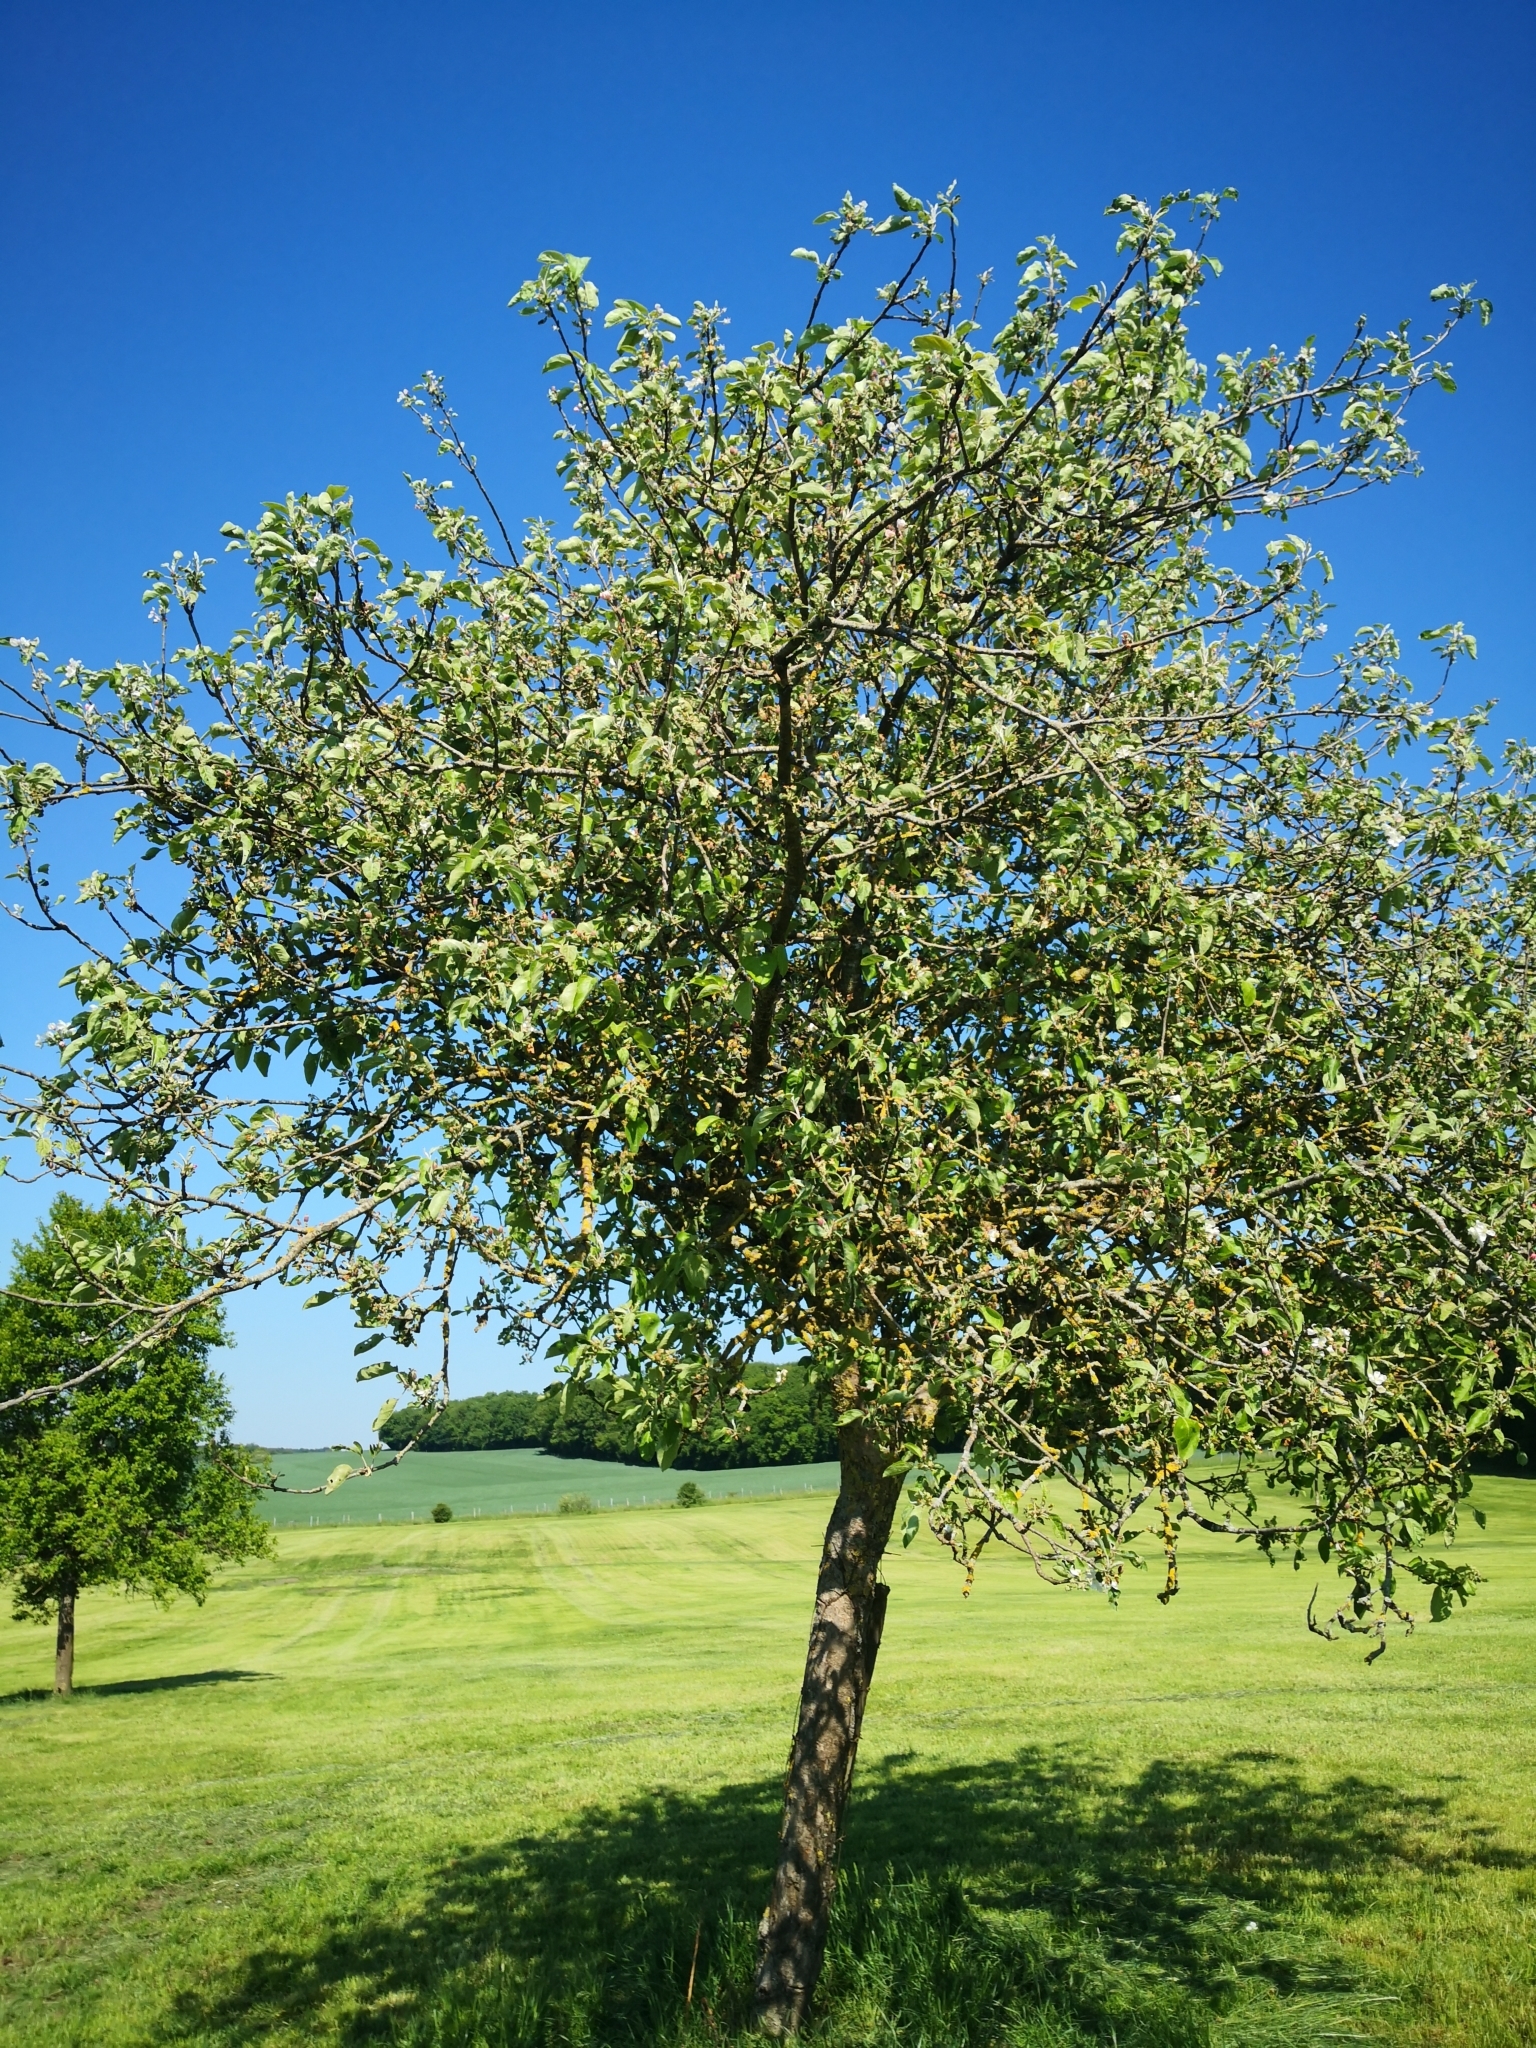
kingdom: Plantae
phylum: Tracheophyta
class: Magnoliopsida
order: Rosales
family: Rosaceae
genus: Malus
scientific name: Malus sylvestris
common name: Crab apple
